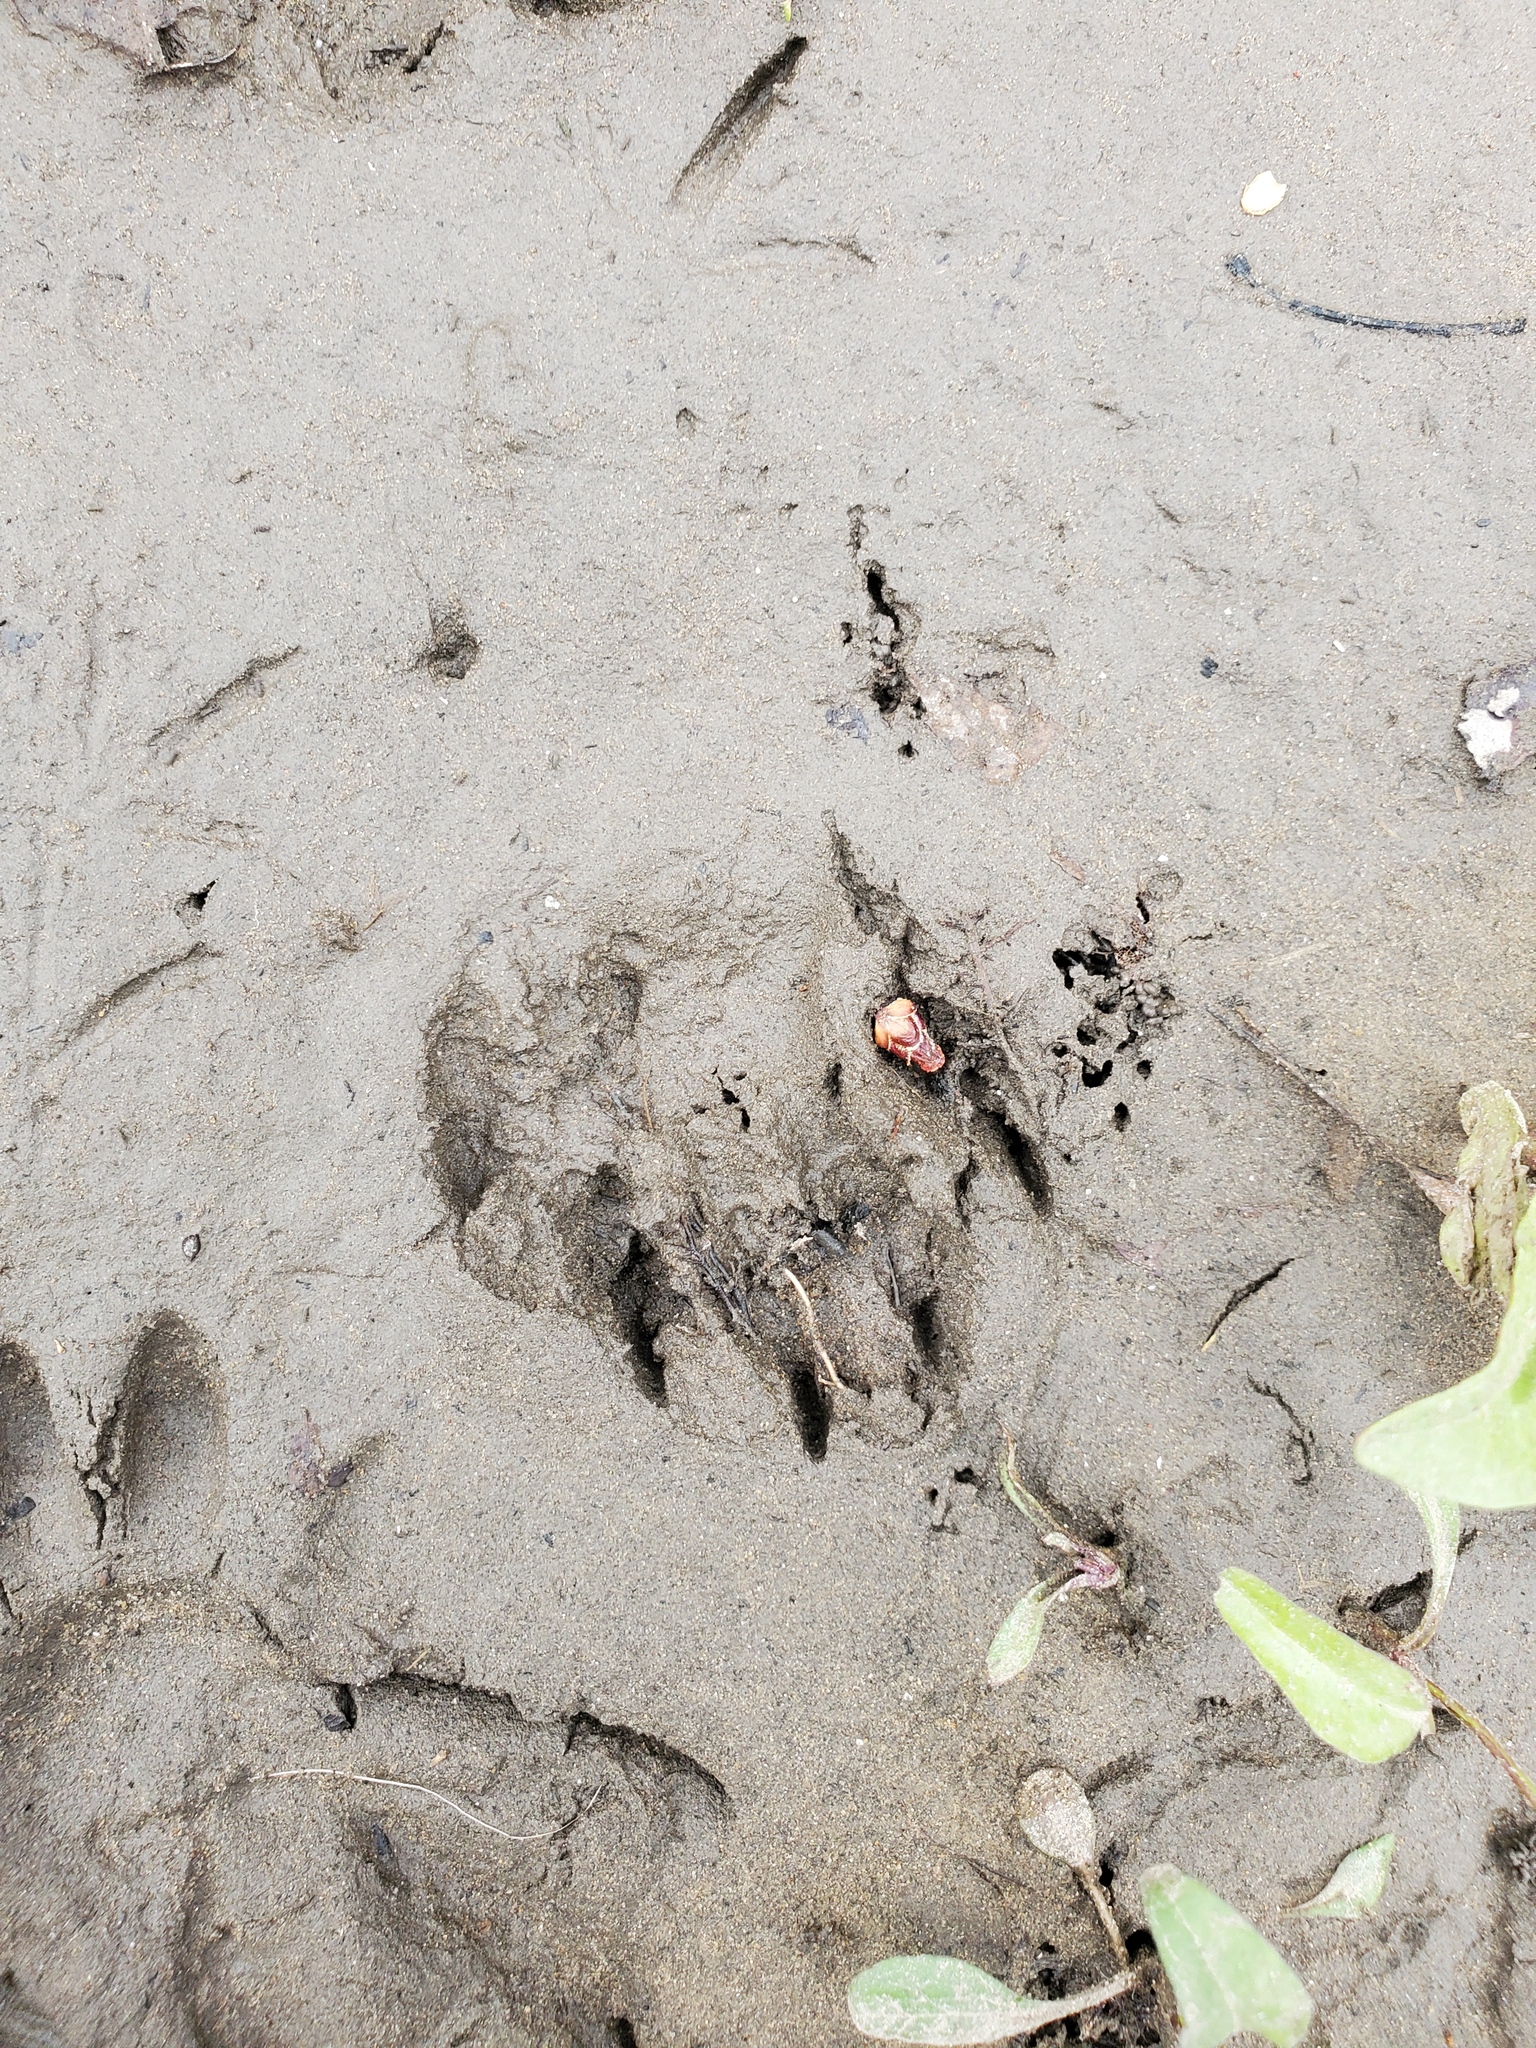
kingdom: Animalia
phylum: Chordata
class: Mammalia
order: Carnivora
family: Procyonidae
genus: Procyon
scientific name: Procyon lotor
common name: Raccoon
